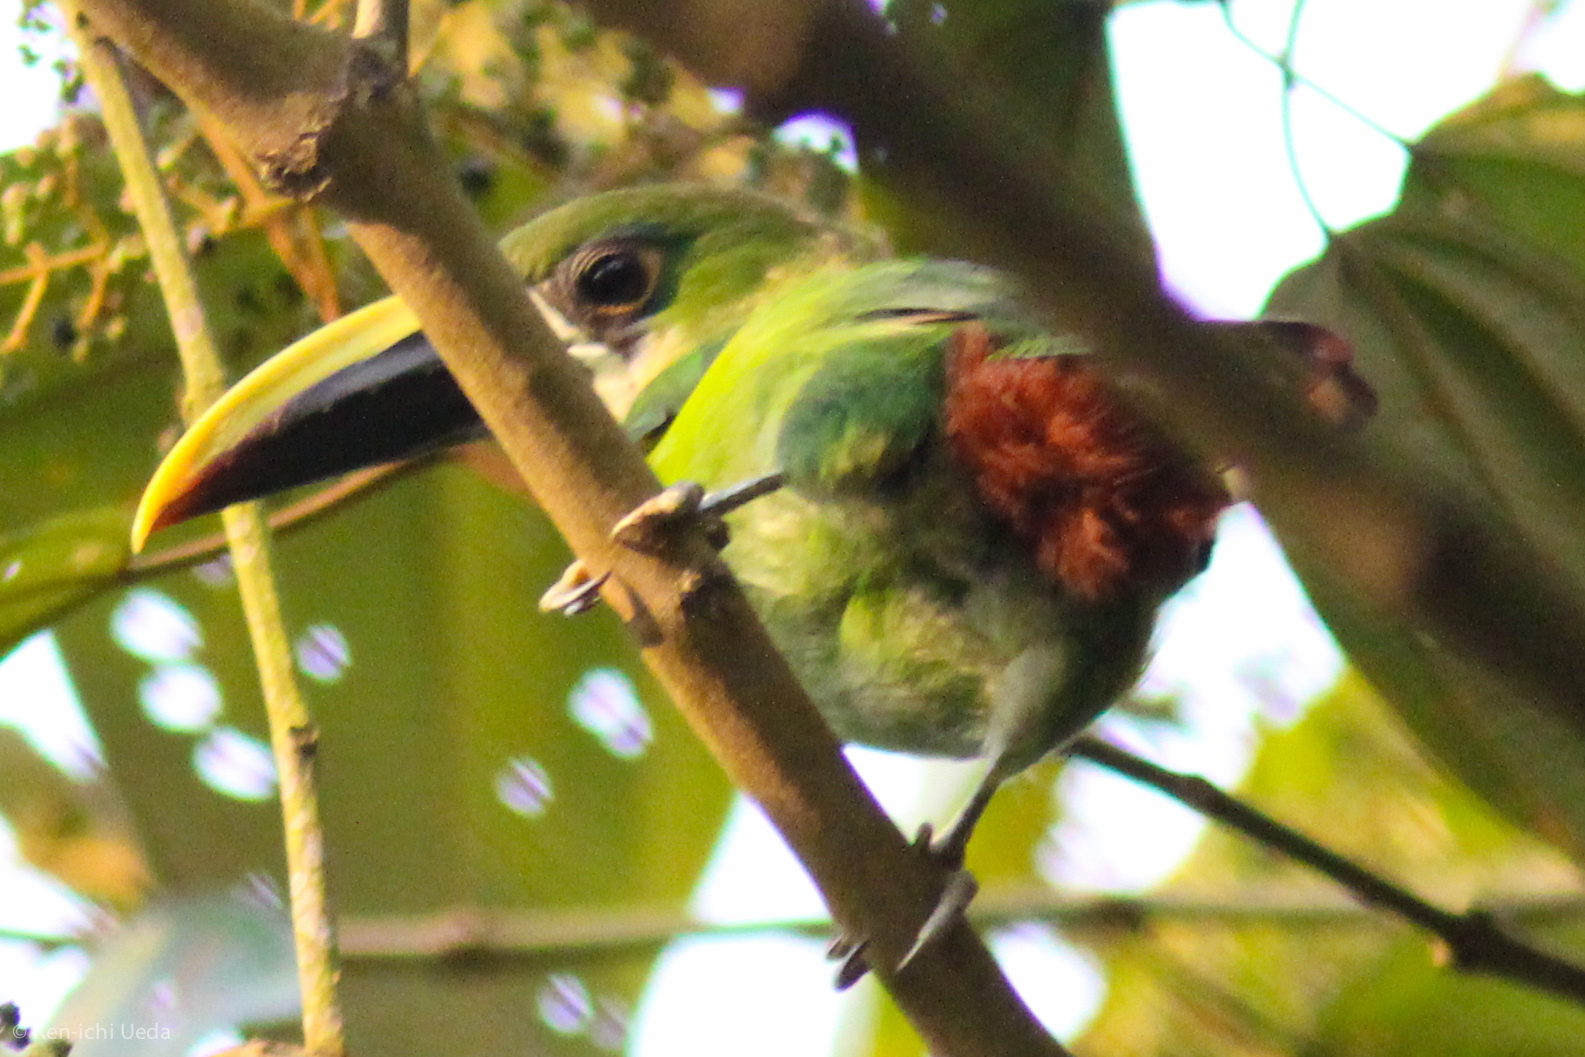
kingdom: Animalia
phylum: Chordata
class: Aves
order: Piciformes
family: Ramphastidae
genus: Aulacorhynchus
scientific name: Aulacorhynchus albivitta
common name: White-throated toucanet
